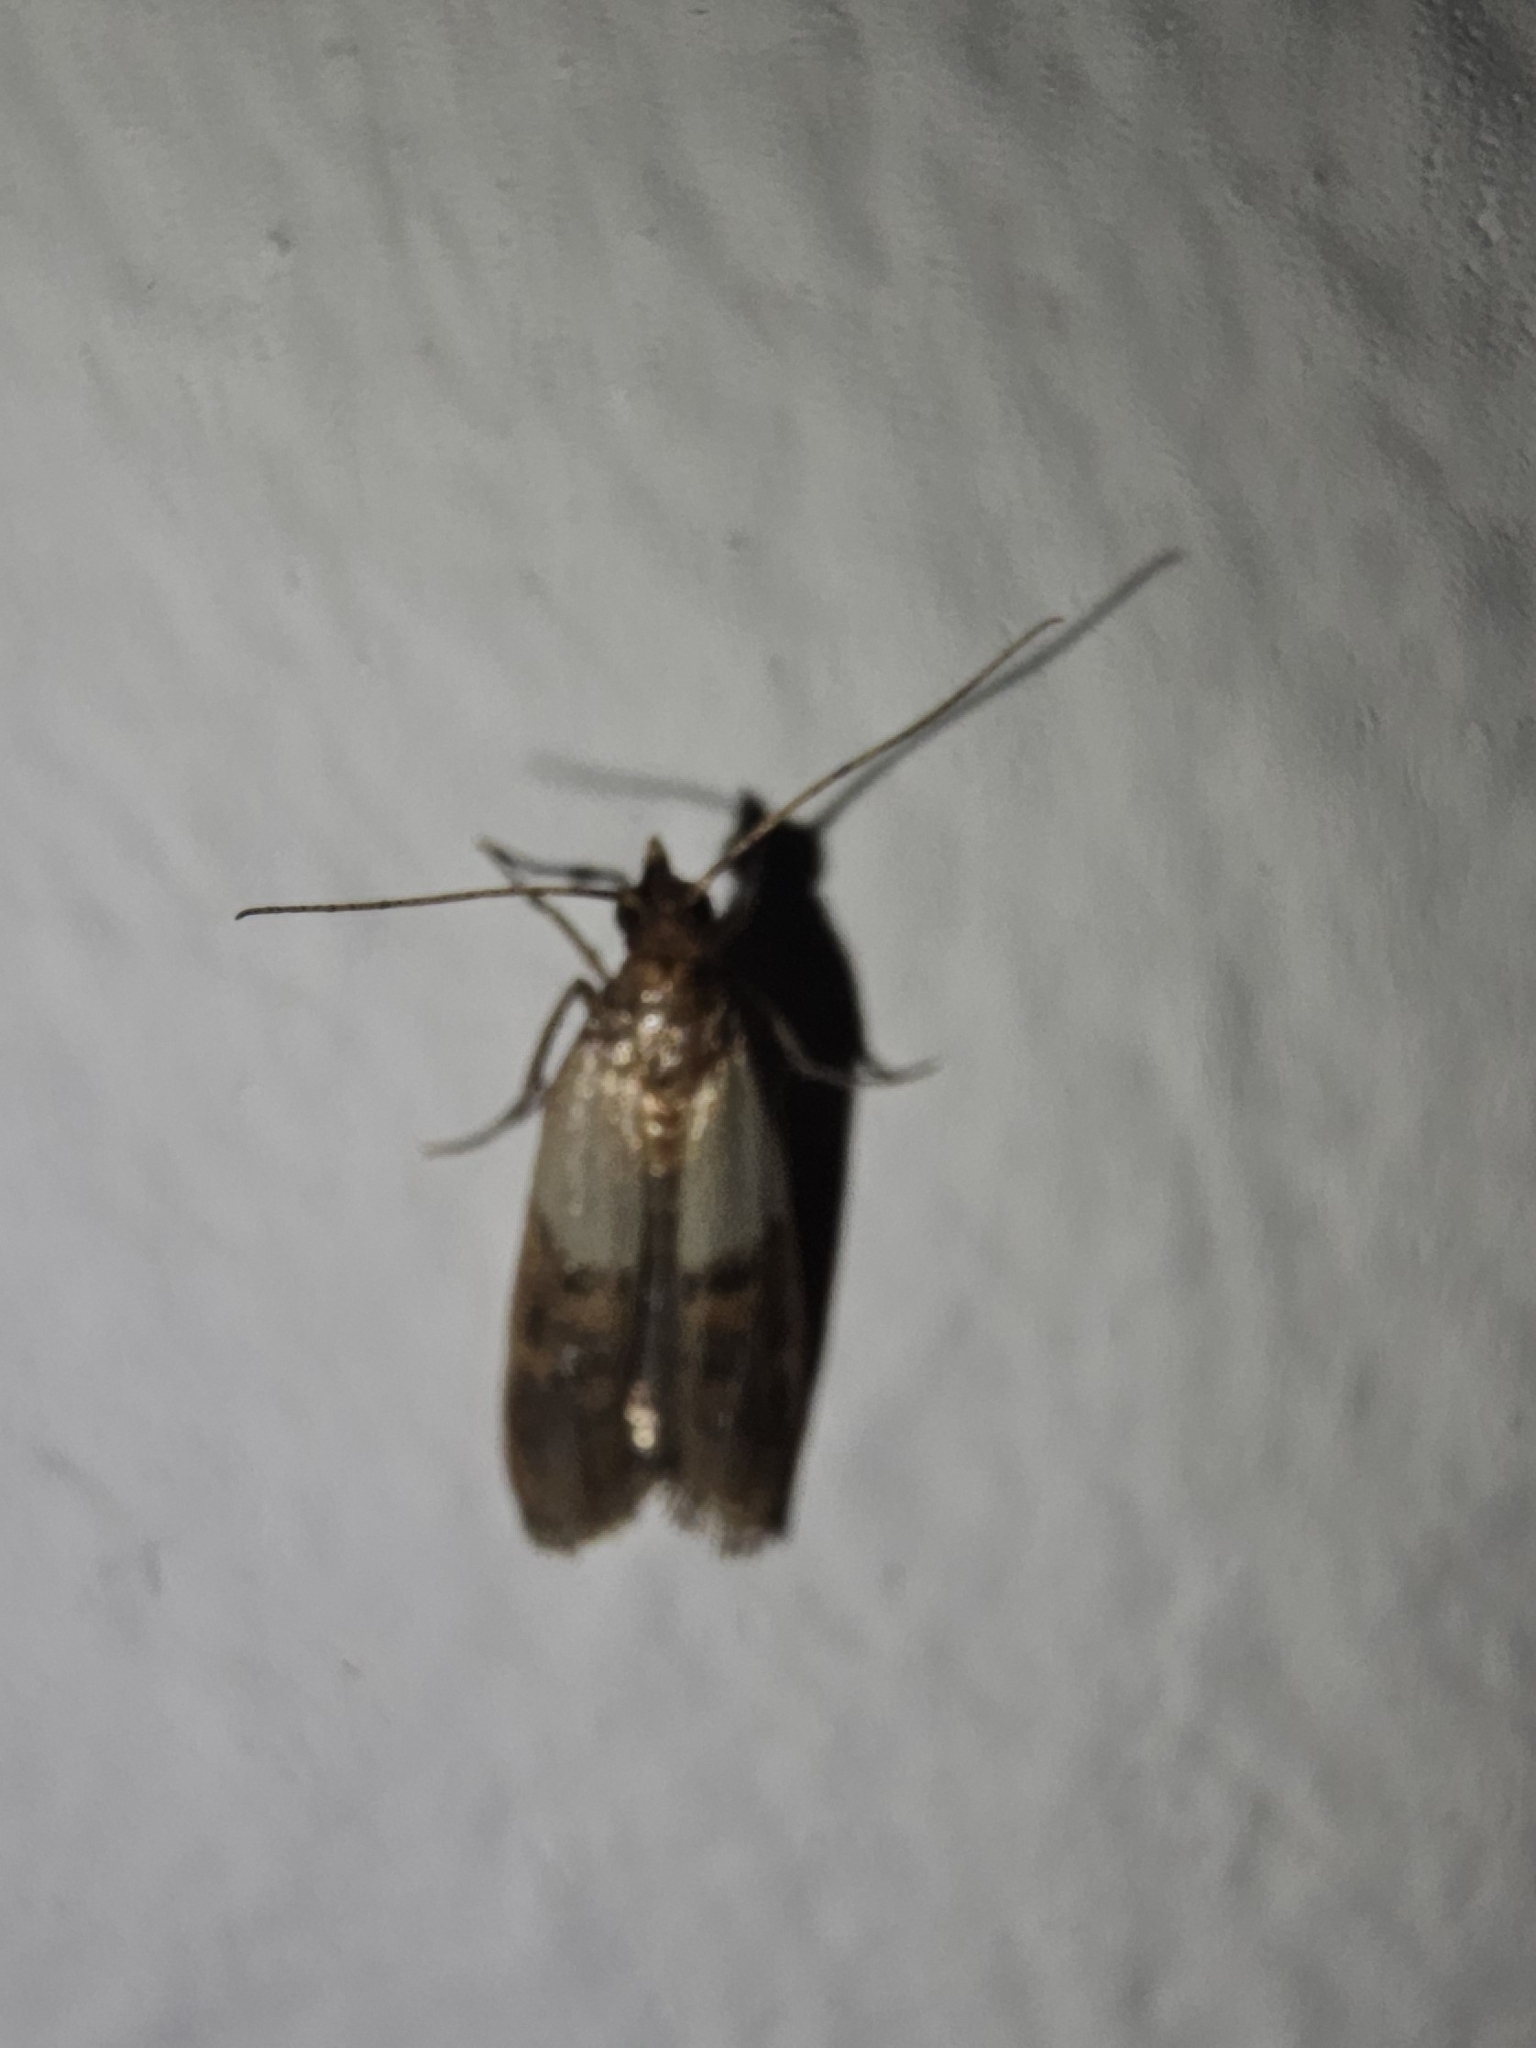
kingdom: Animalia
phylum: Arthropoda
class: Insecta
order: Lepidoptera
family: Pyralidae
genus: Plodia
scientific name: Plodia interpunctella
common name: Indian meal moth
